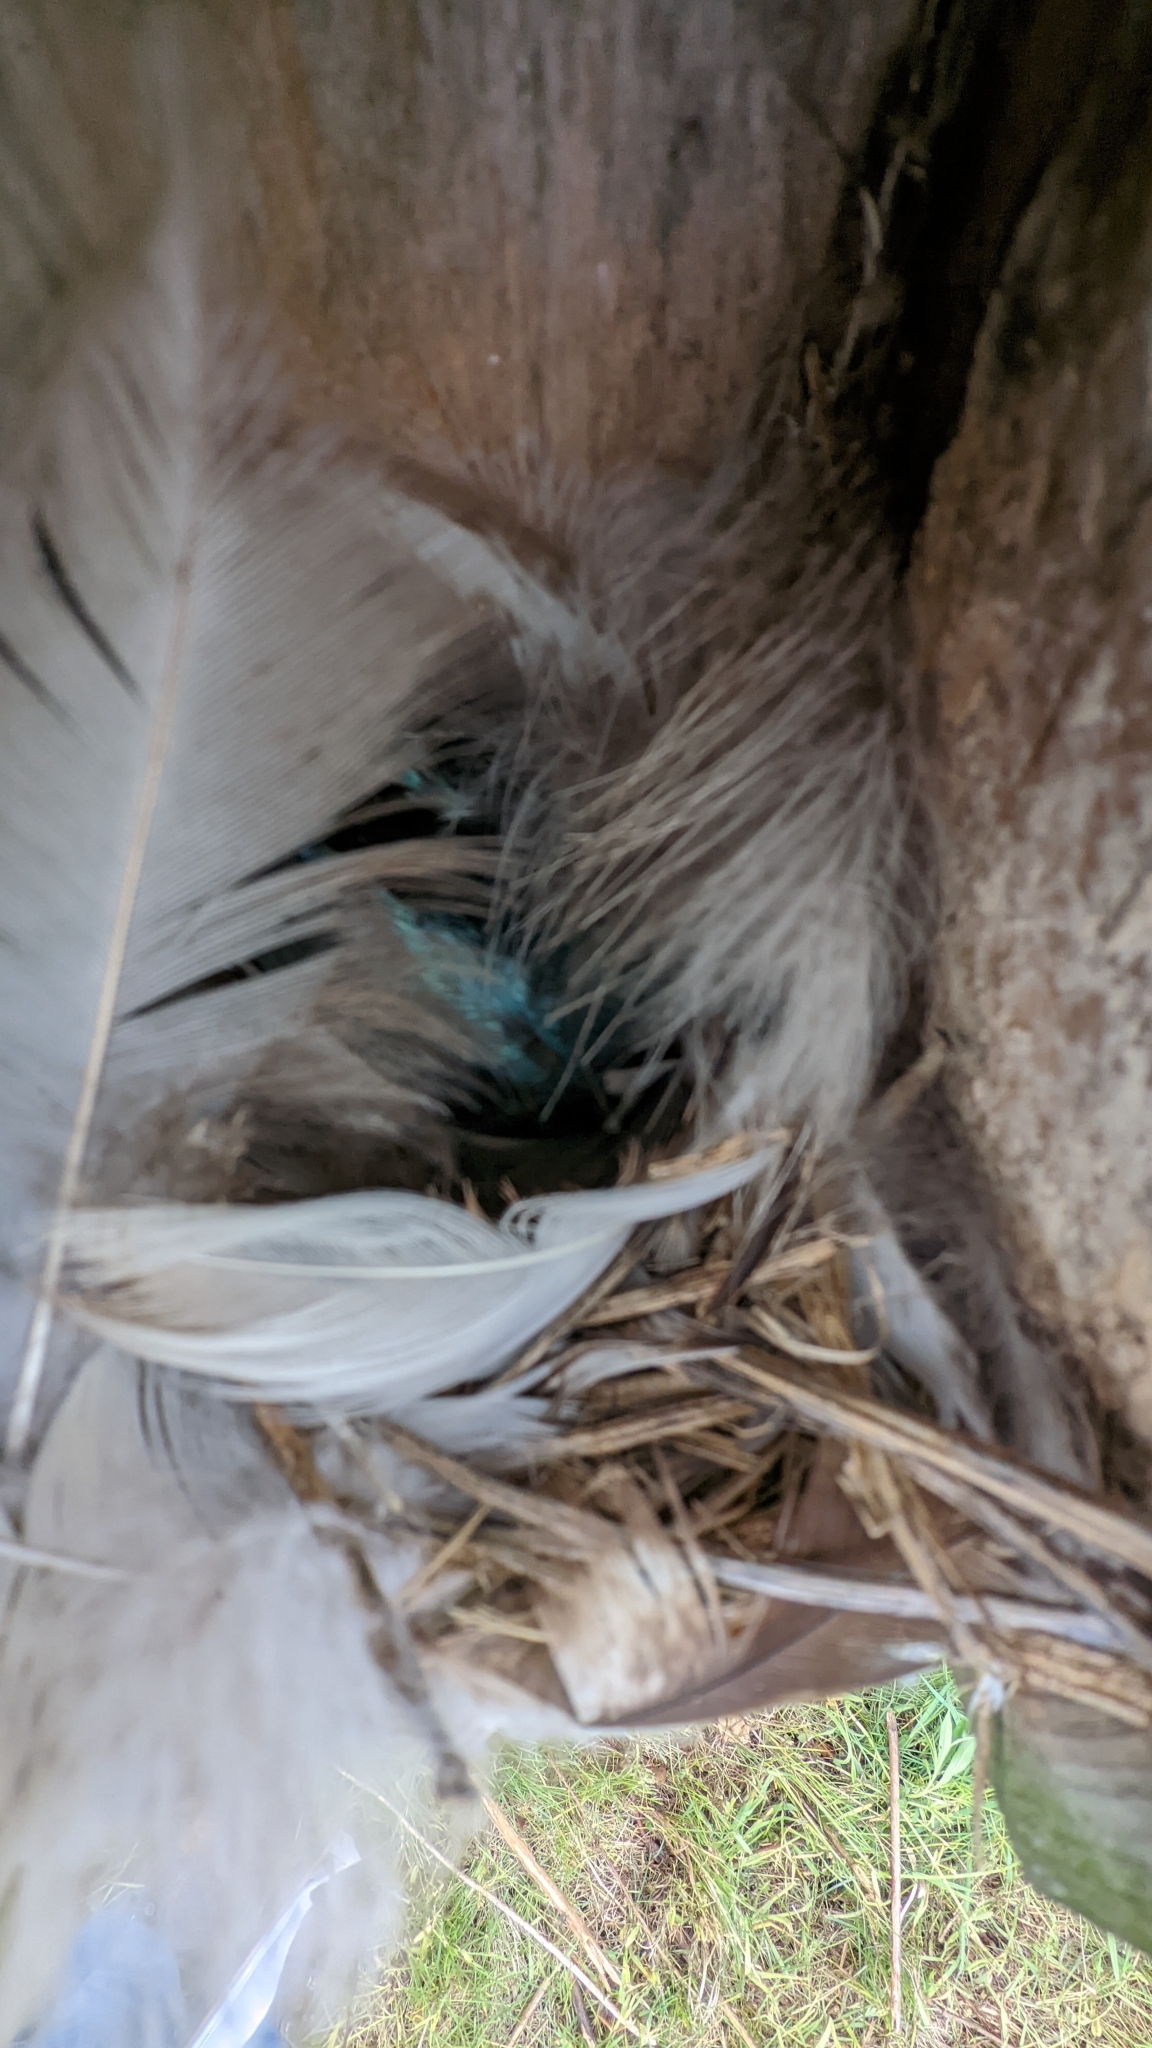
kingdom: Animalia
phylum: Chordata
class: Aves
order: Passeriformes
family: Hirundinidae
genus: Tachycineta
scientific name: Tachycineta bicolor
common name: Tree swallow
